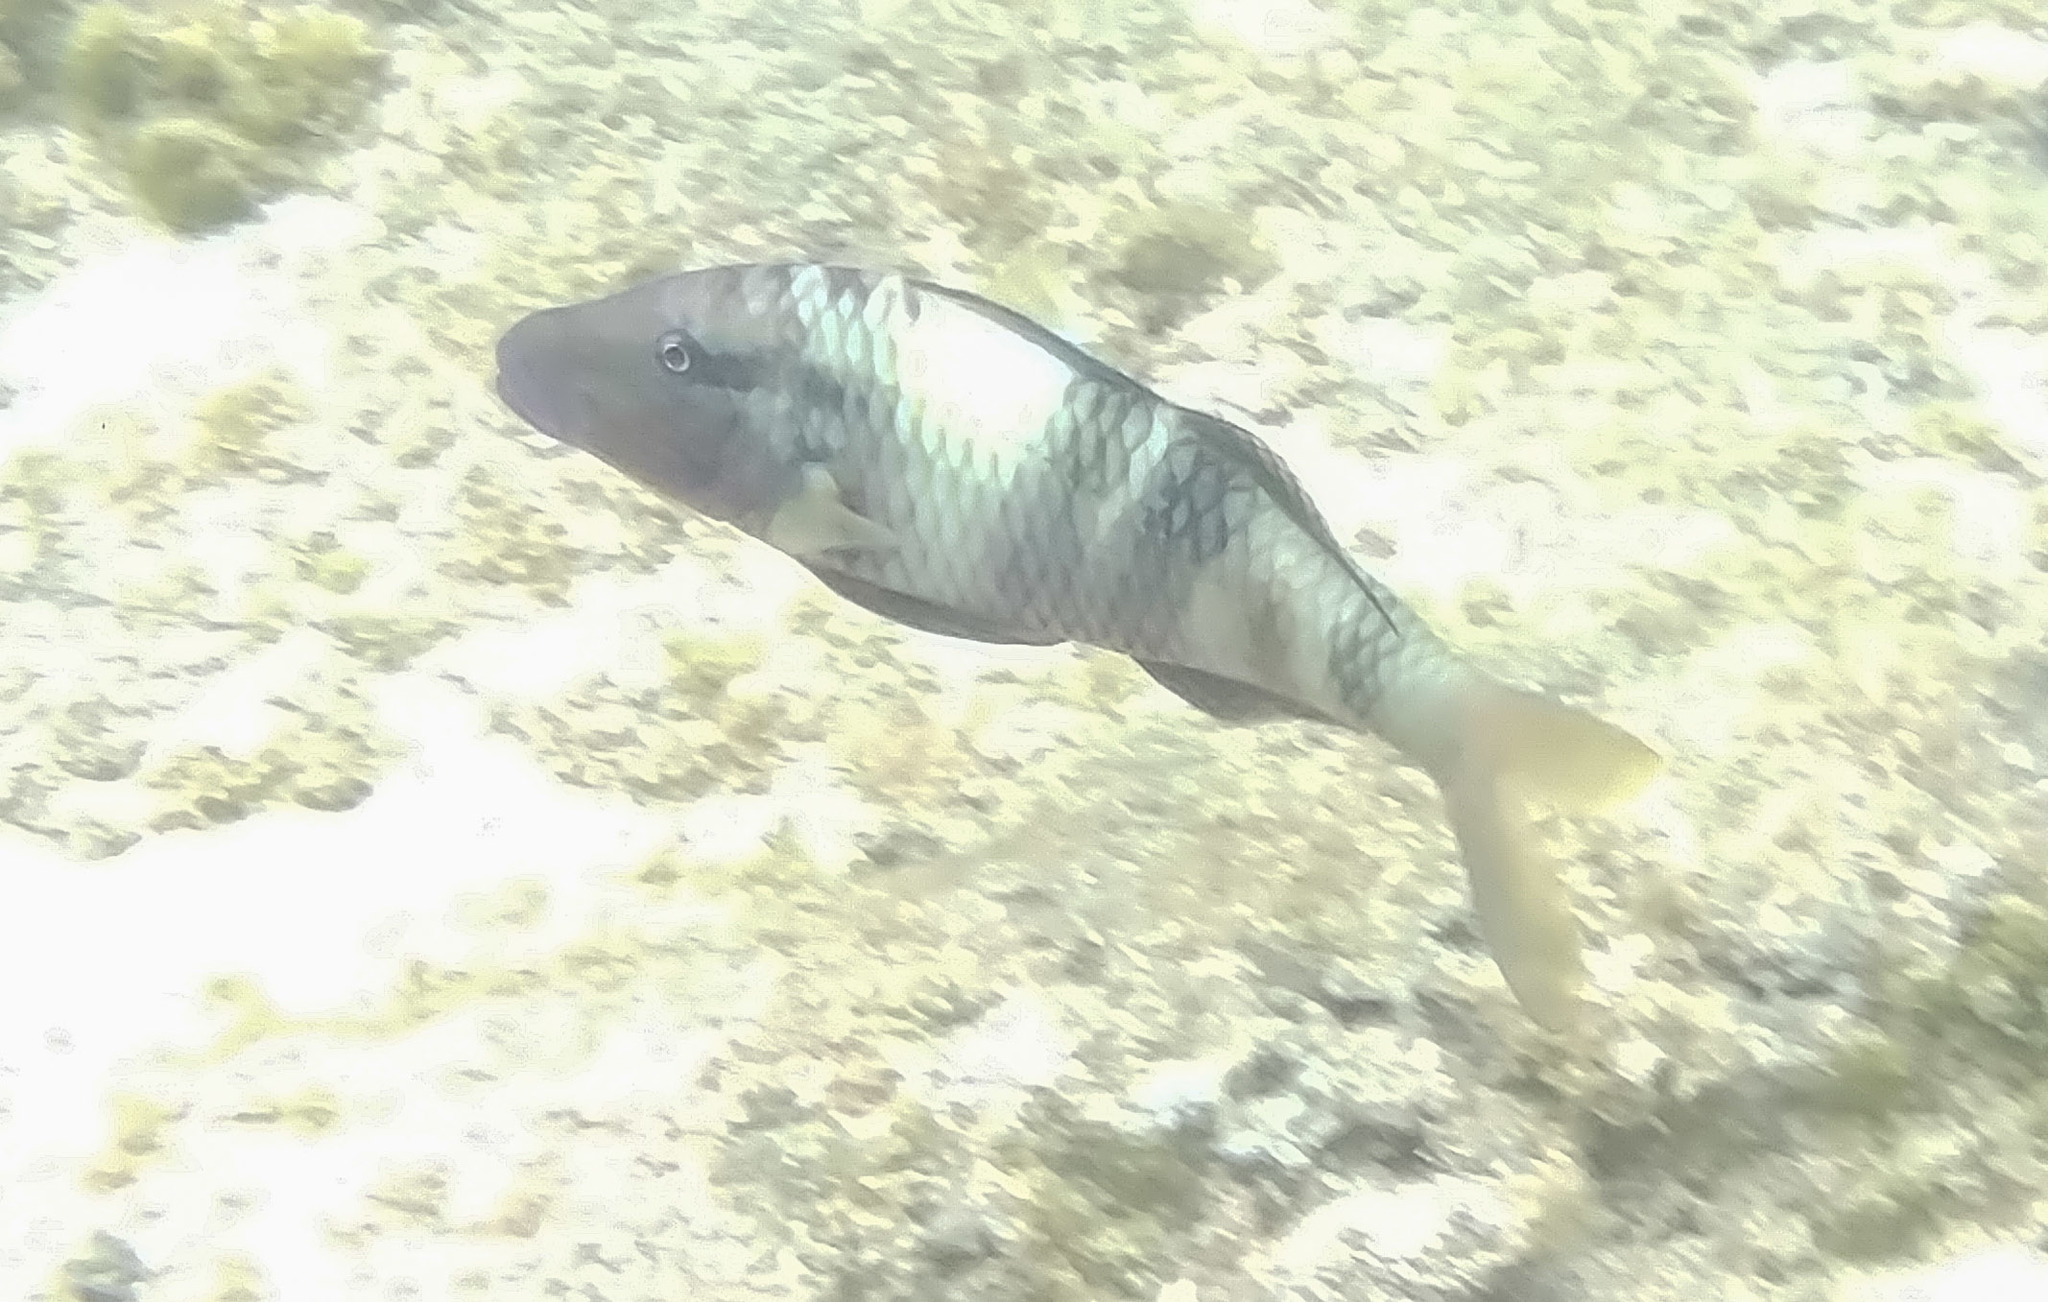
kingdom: Animalia
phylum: Chordata
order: Perciformes
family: Mullidae
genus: Parupeneus
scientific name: Parupeneus multifasciatus
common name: Manybar goatfish
